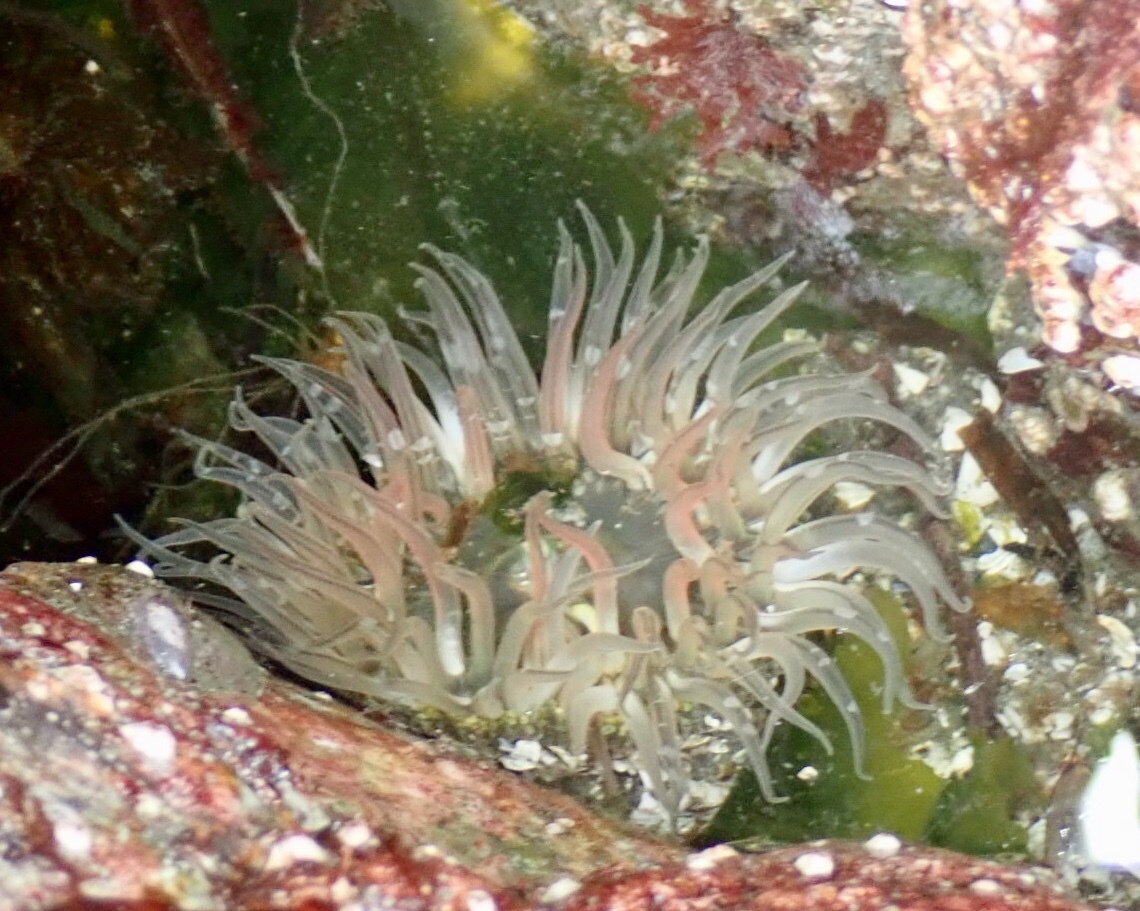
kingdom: Animalia
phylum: Cnidaria
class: Anthozoa
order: Actiniaria
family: Actiniidae
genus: Anthopleura
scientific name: Anthopleura artemisia
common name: Buried sea anemone
